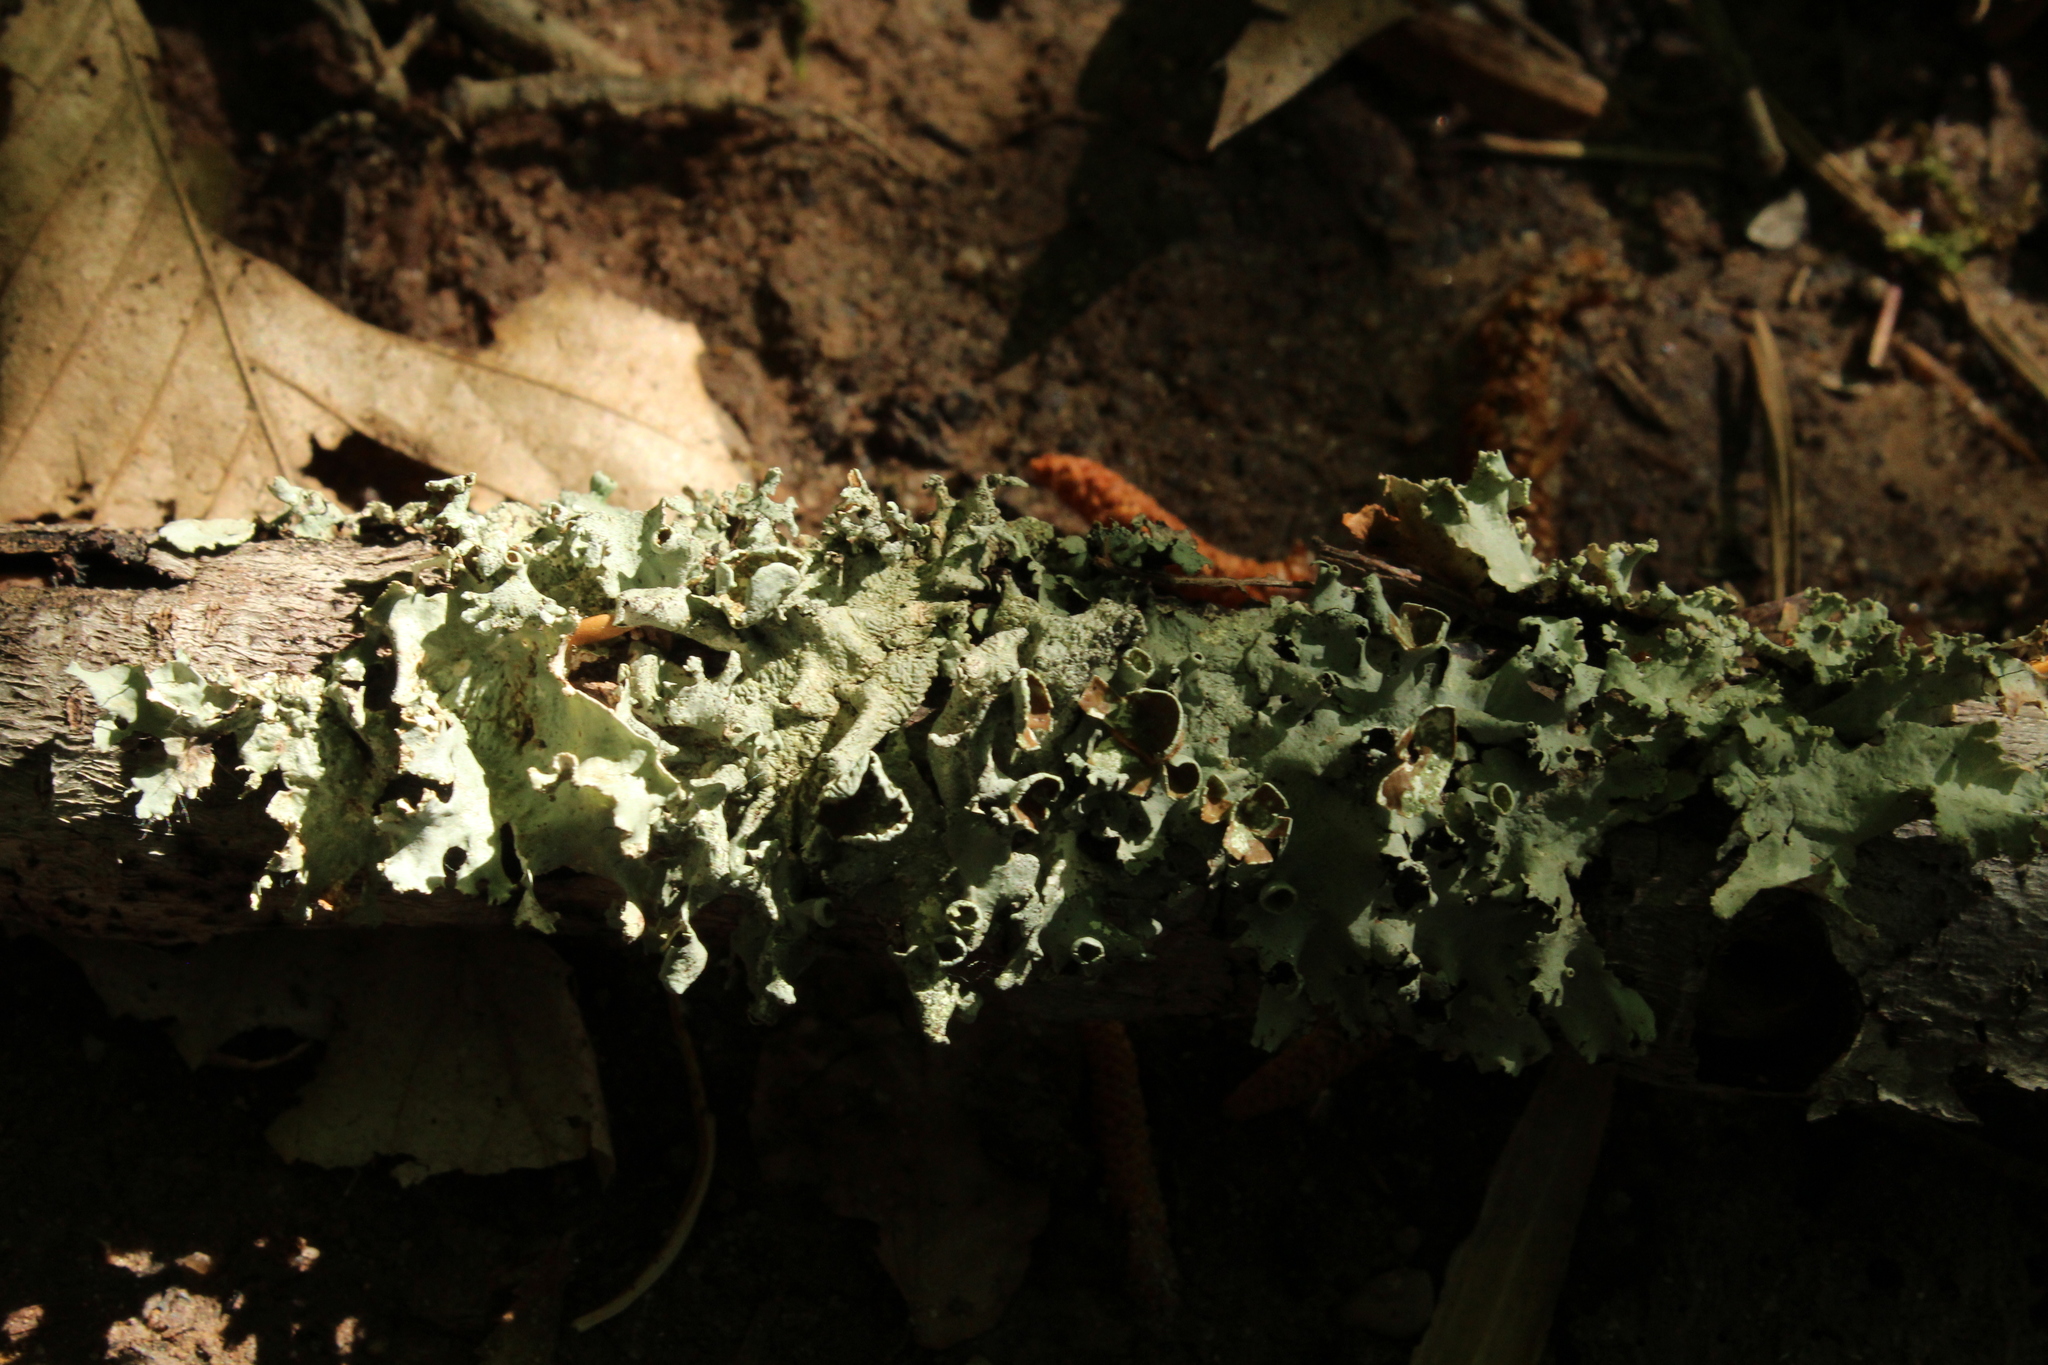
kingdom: Fungi
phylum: Ascomycota
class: Lecanoromycetes
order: Lecanorales
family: Parmeliaceae
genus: Parmotrema
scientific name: Parmotrema perforatum
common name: Perforated ruffle lichen
